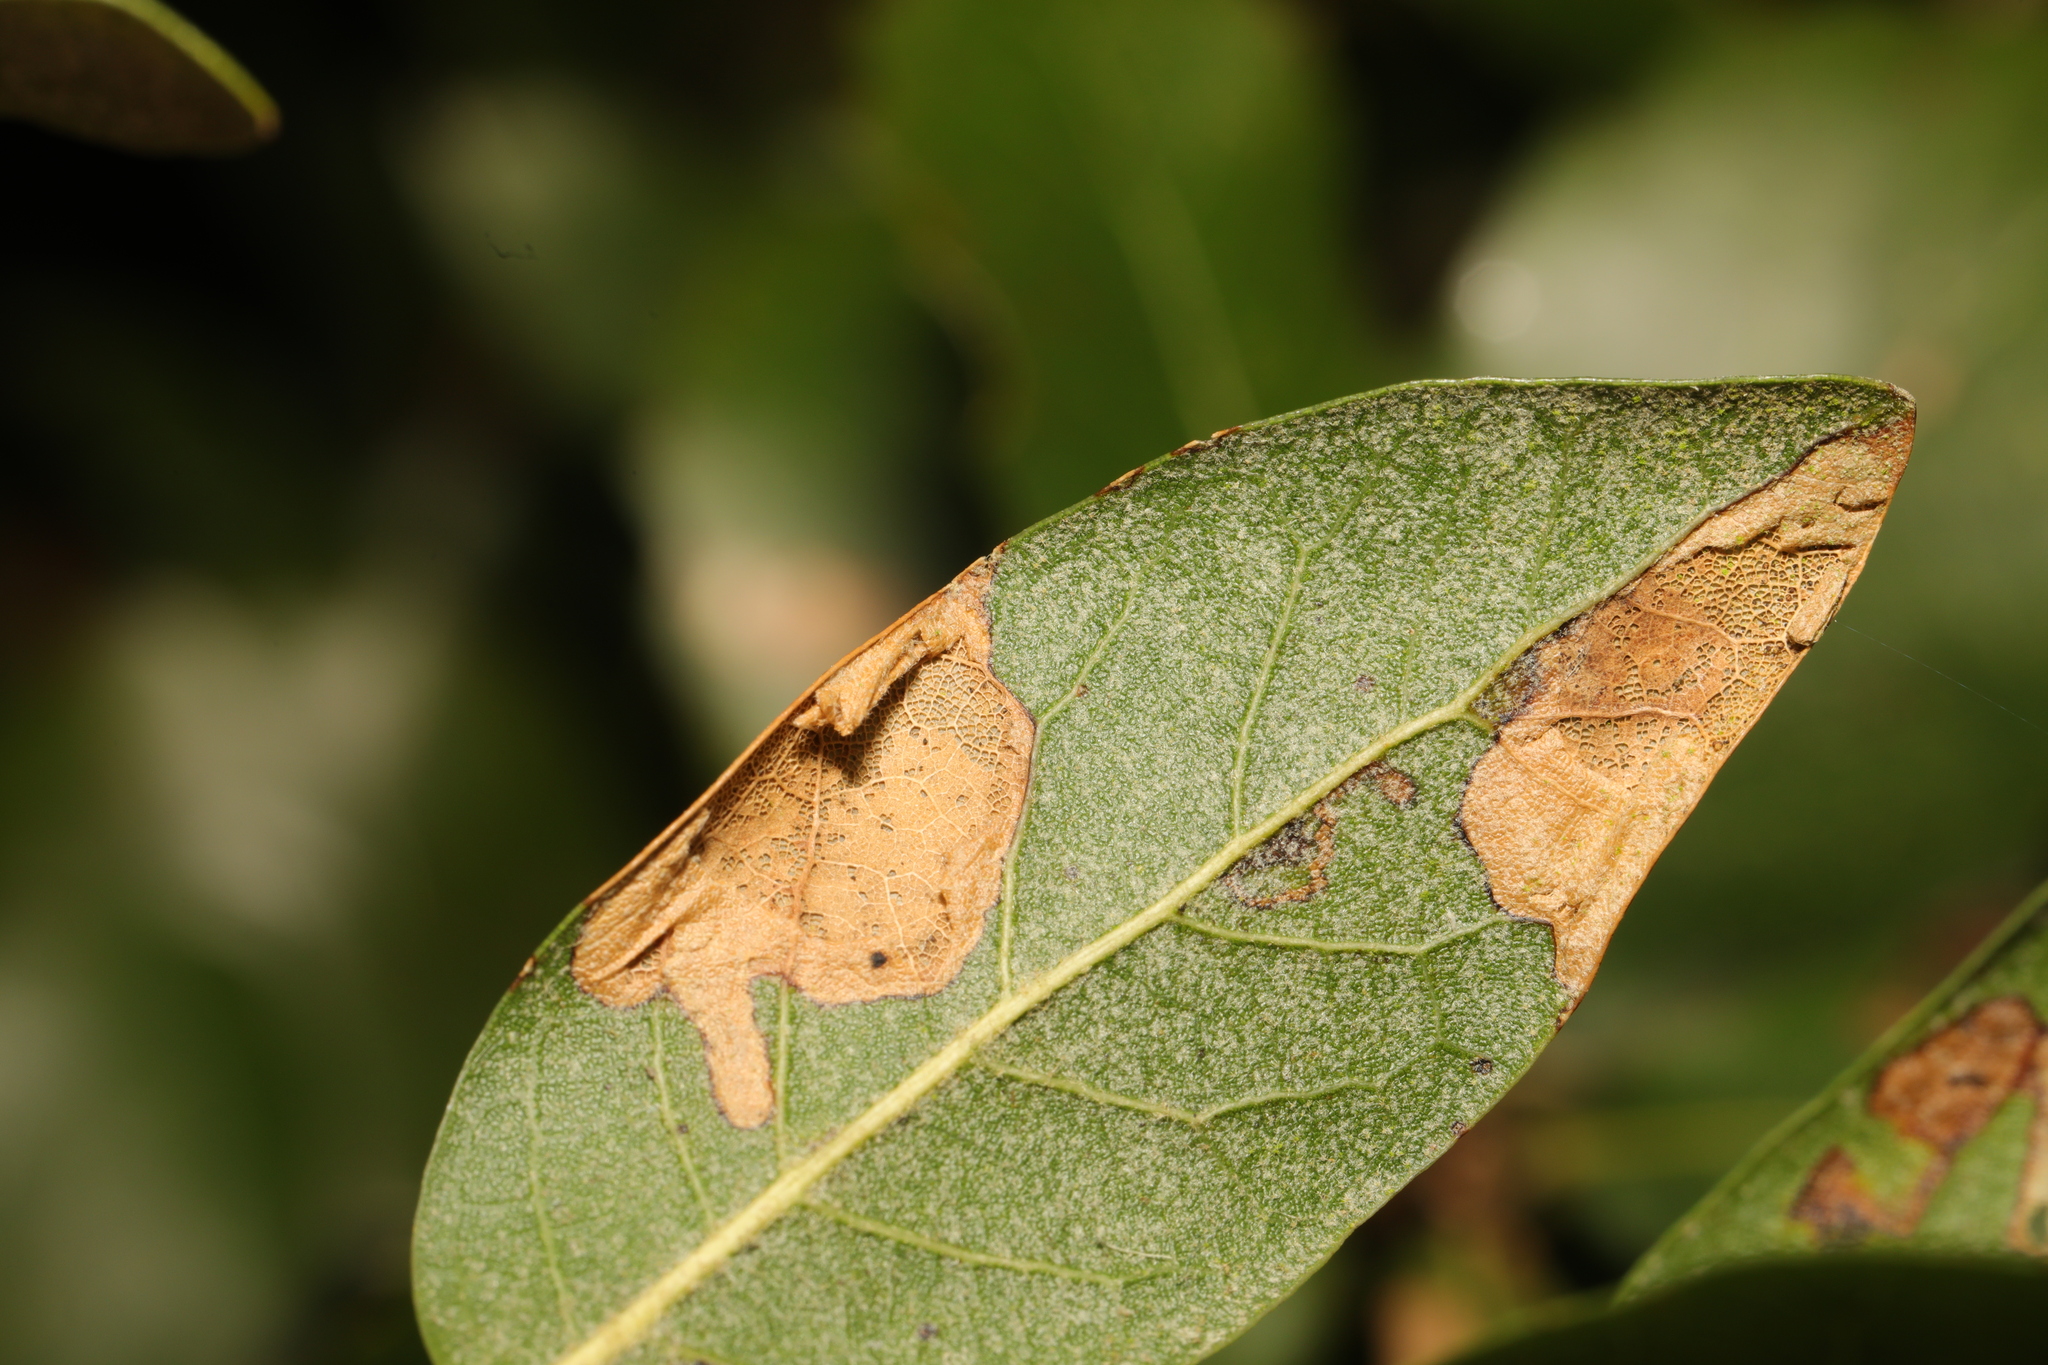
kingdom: Animalia
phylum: Arthropoda
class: Insecta
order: Lepidoptera
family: Gracillariidae
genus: Phyllonorycter
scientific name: Phyllonorycter messaniella
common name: Garden midget
